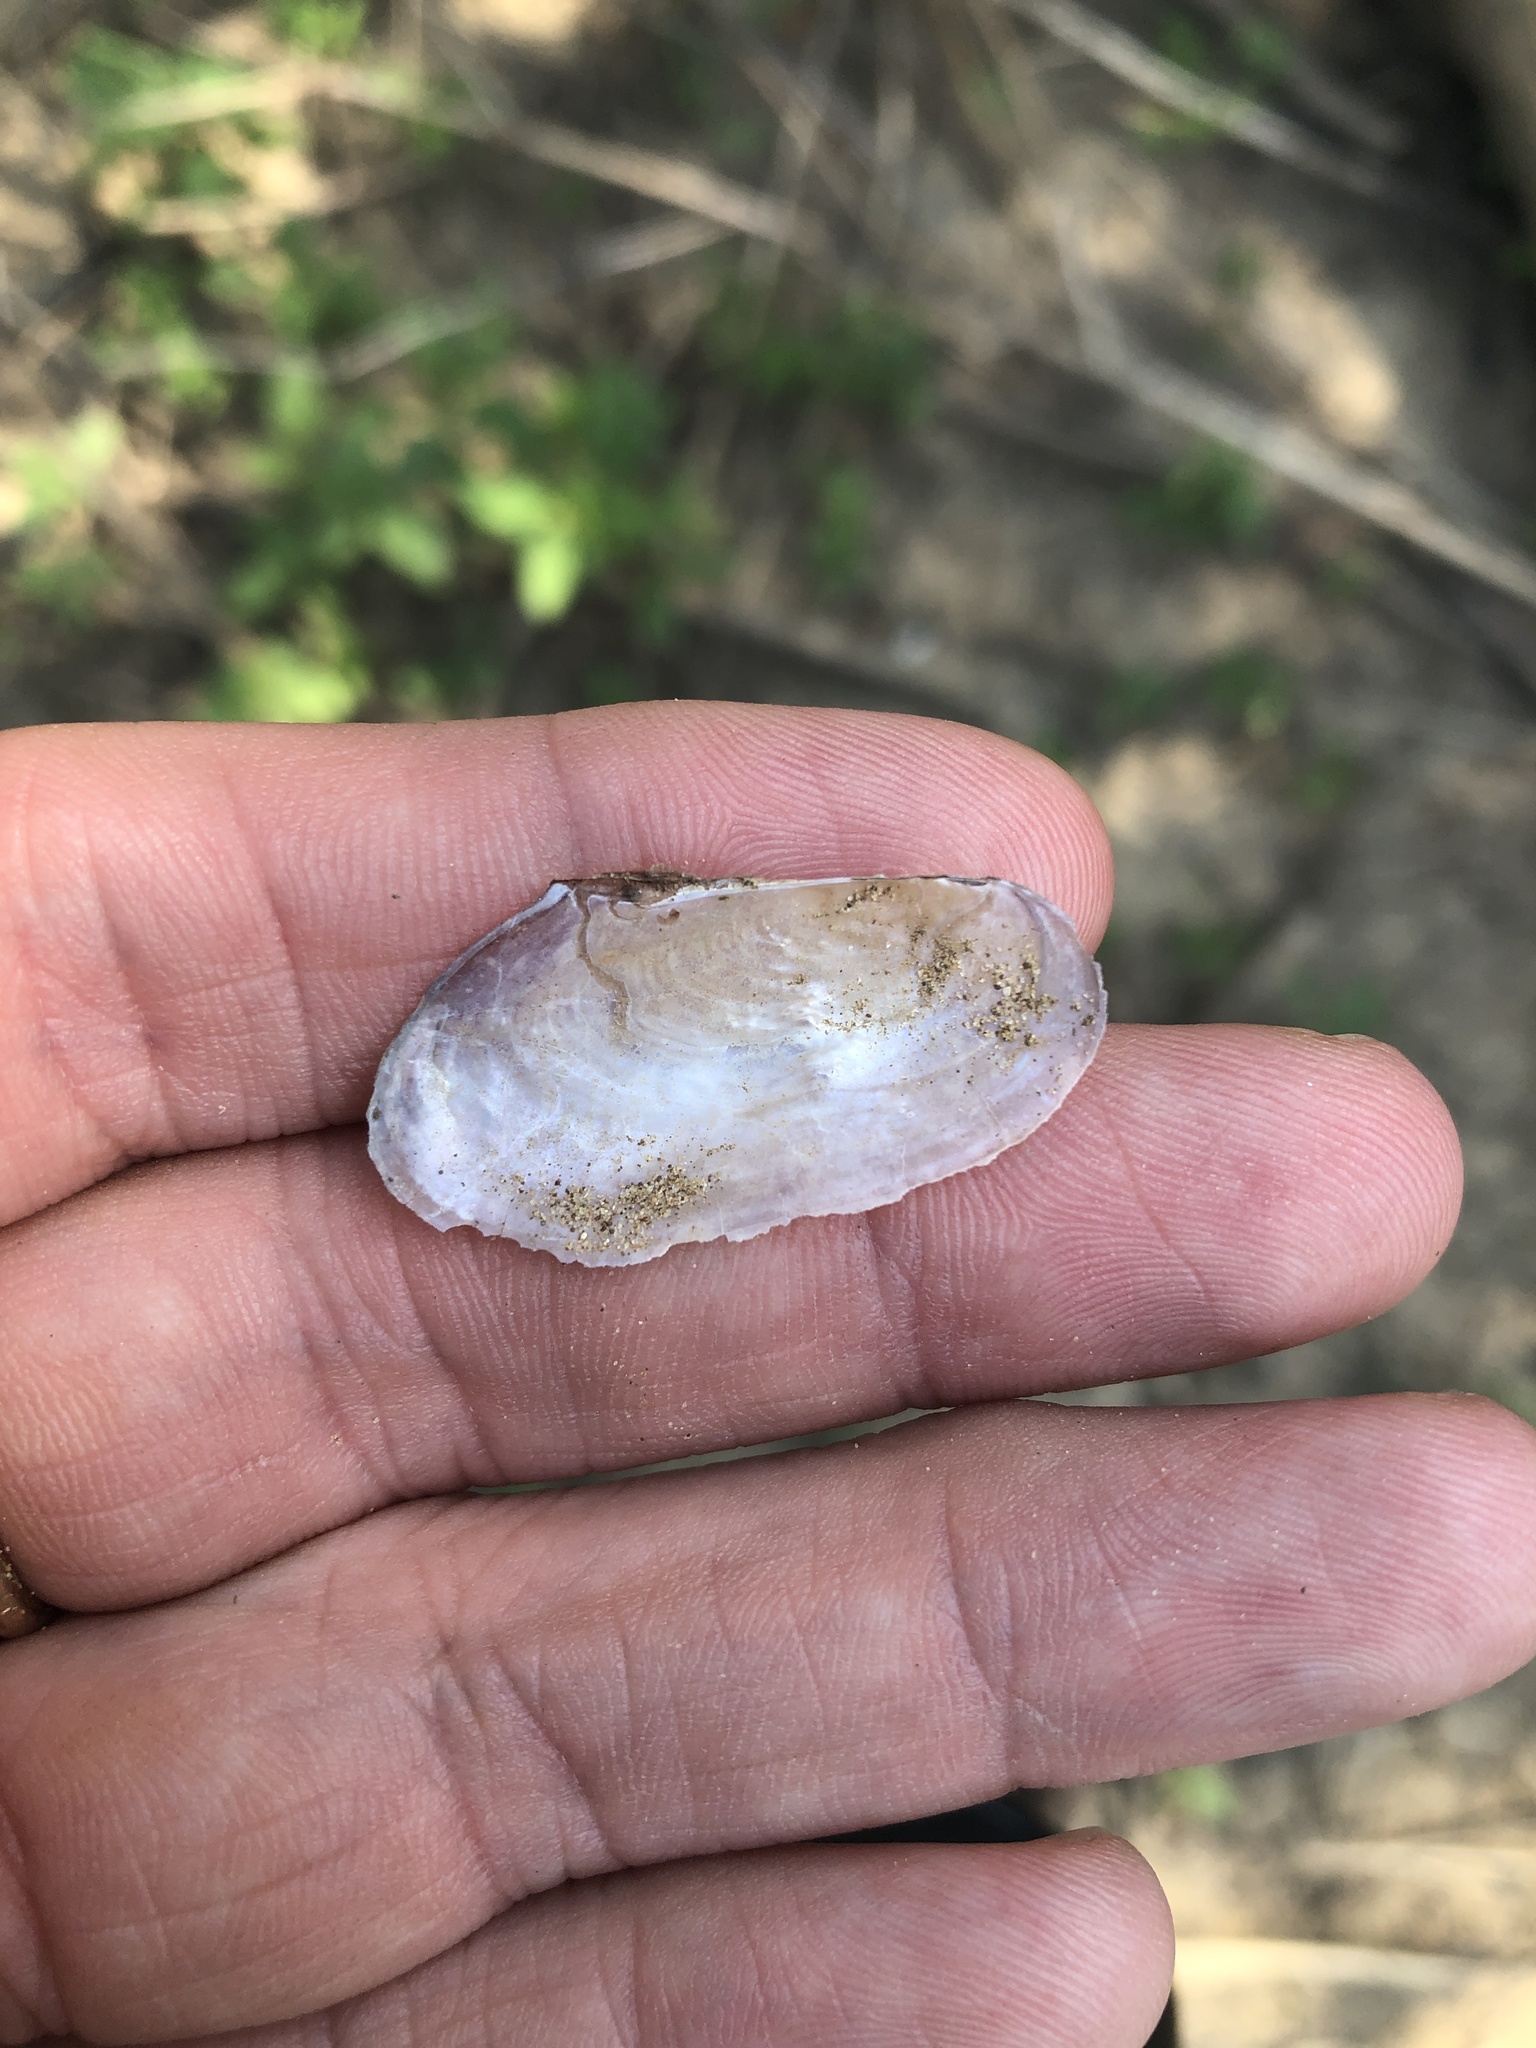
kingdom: Animalia
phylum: Mollusca
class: Bivalvia
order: Unionida
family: Unionidae
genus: Utterbackia
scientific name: Utterbackia imbecillis
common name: Paper pondshell
